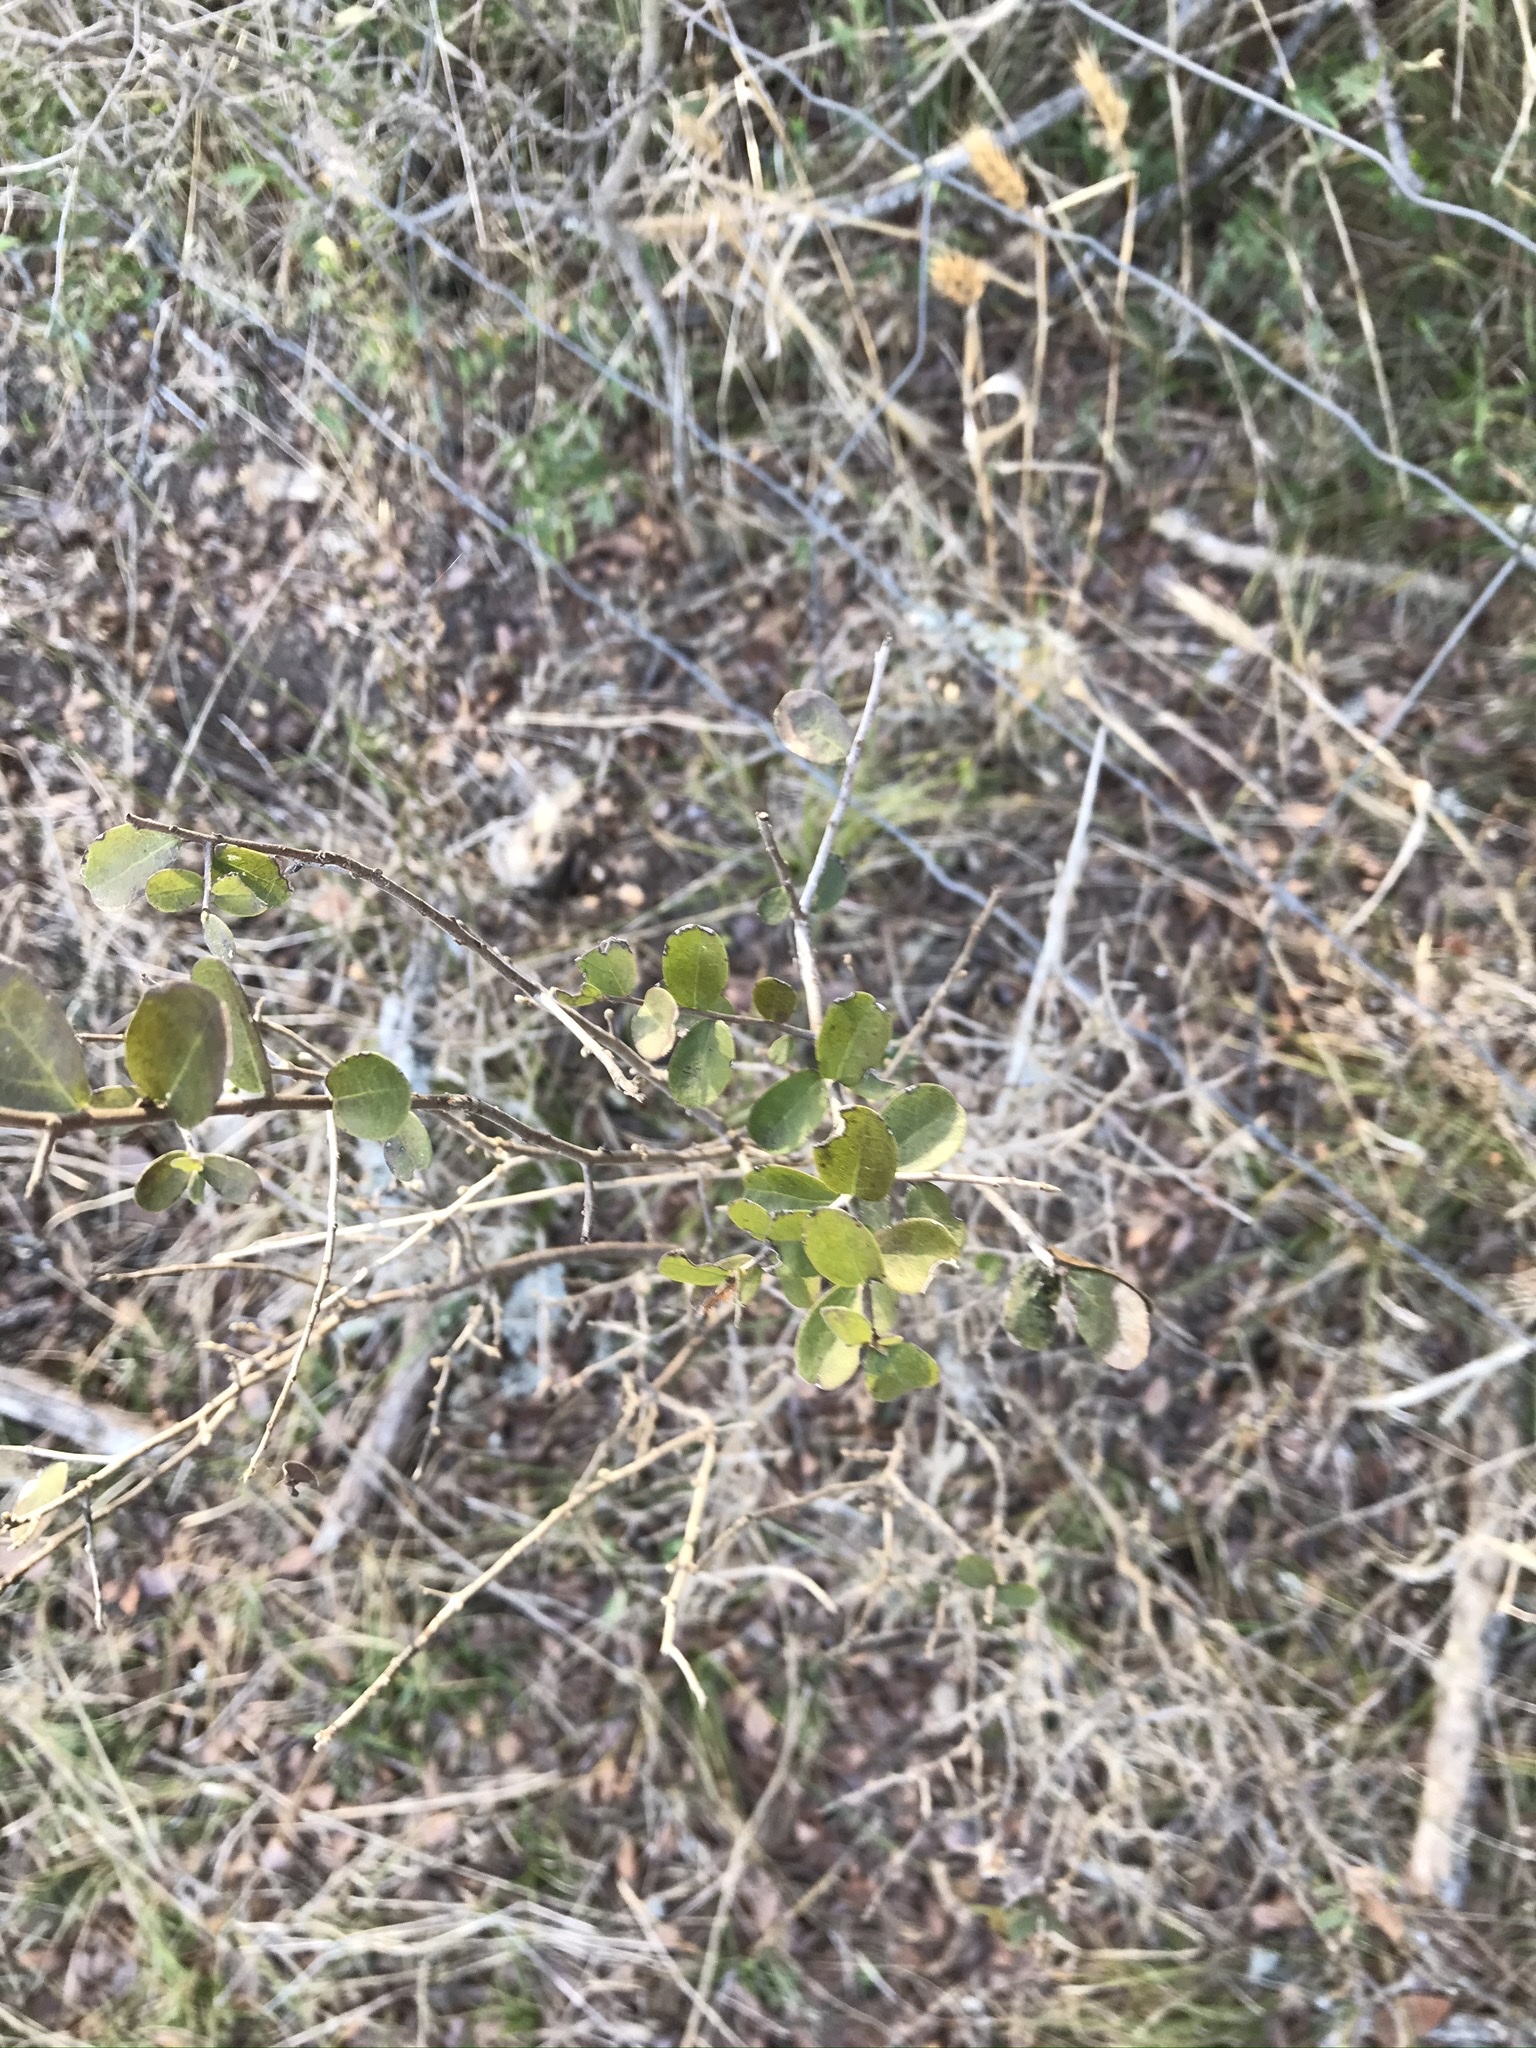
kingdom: Plantae
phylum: Tracheophyta
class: Magnoliopsida
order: Ericales
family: Ebenaceae
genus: Diospyros
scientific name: Diospyros texana
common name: Texas persimmon
